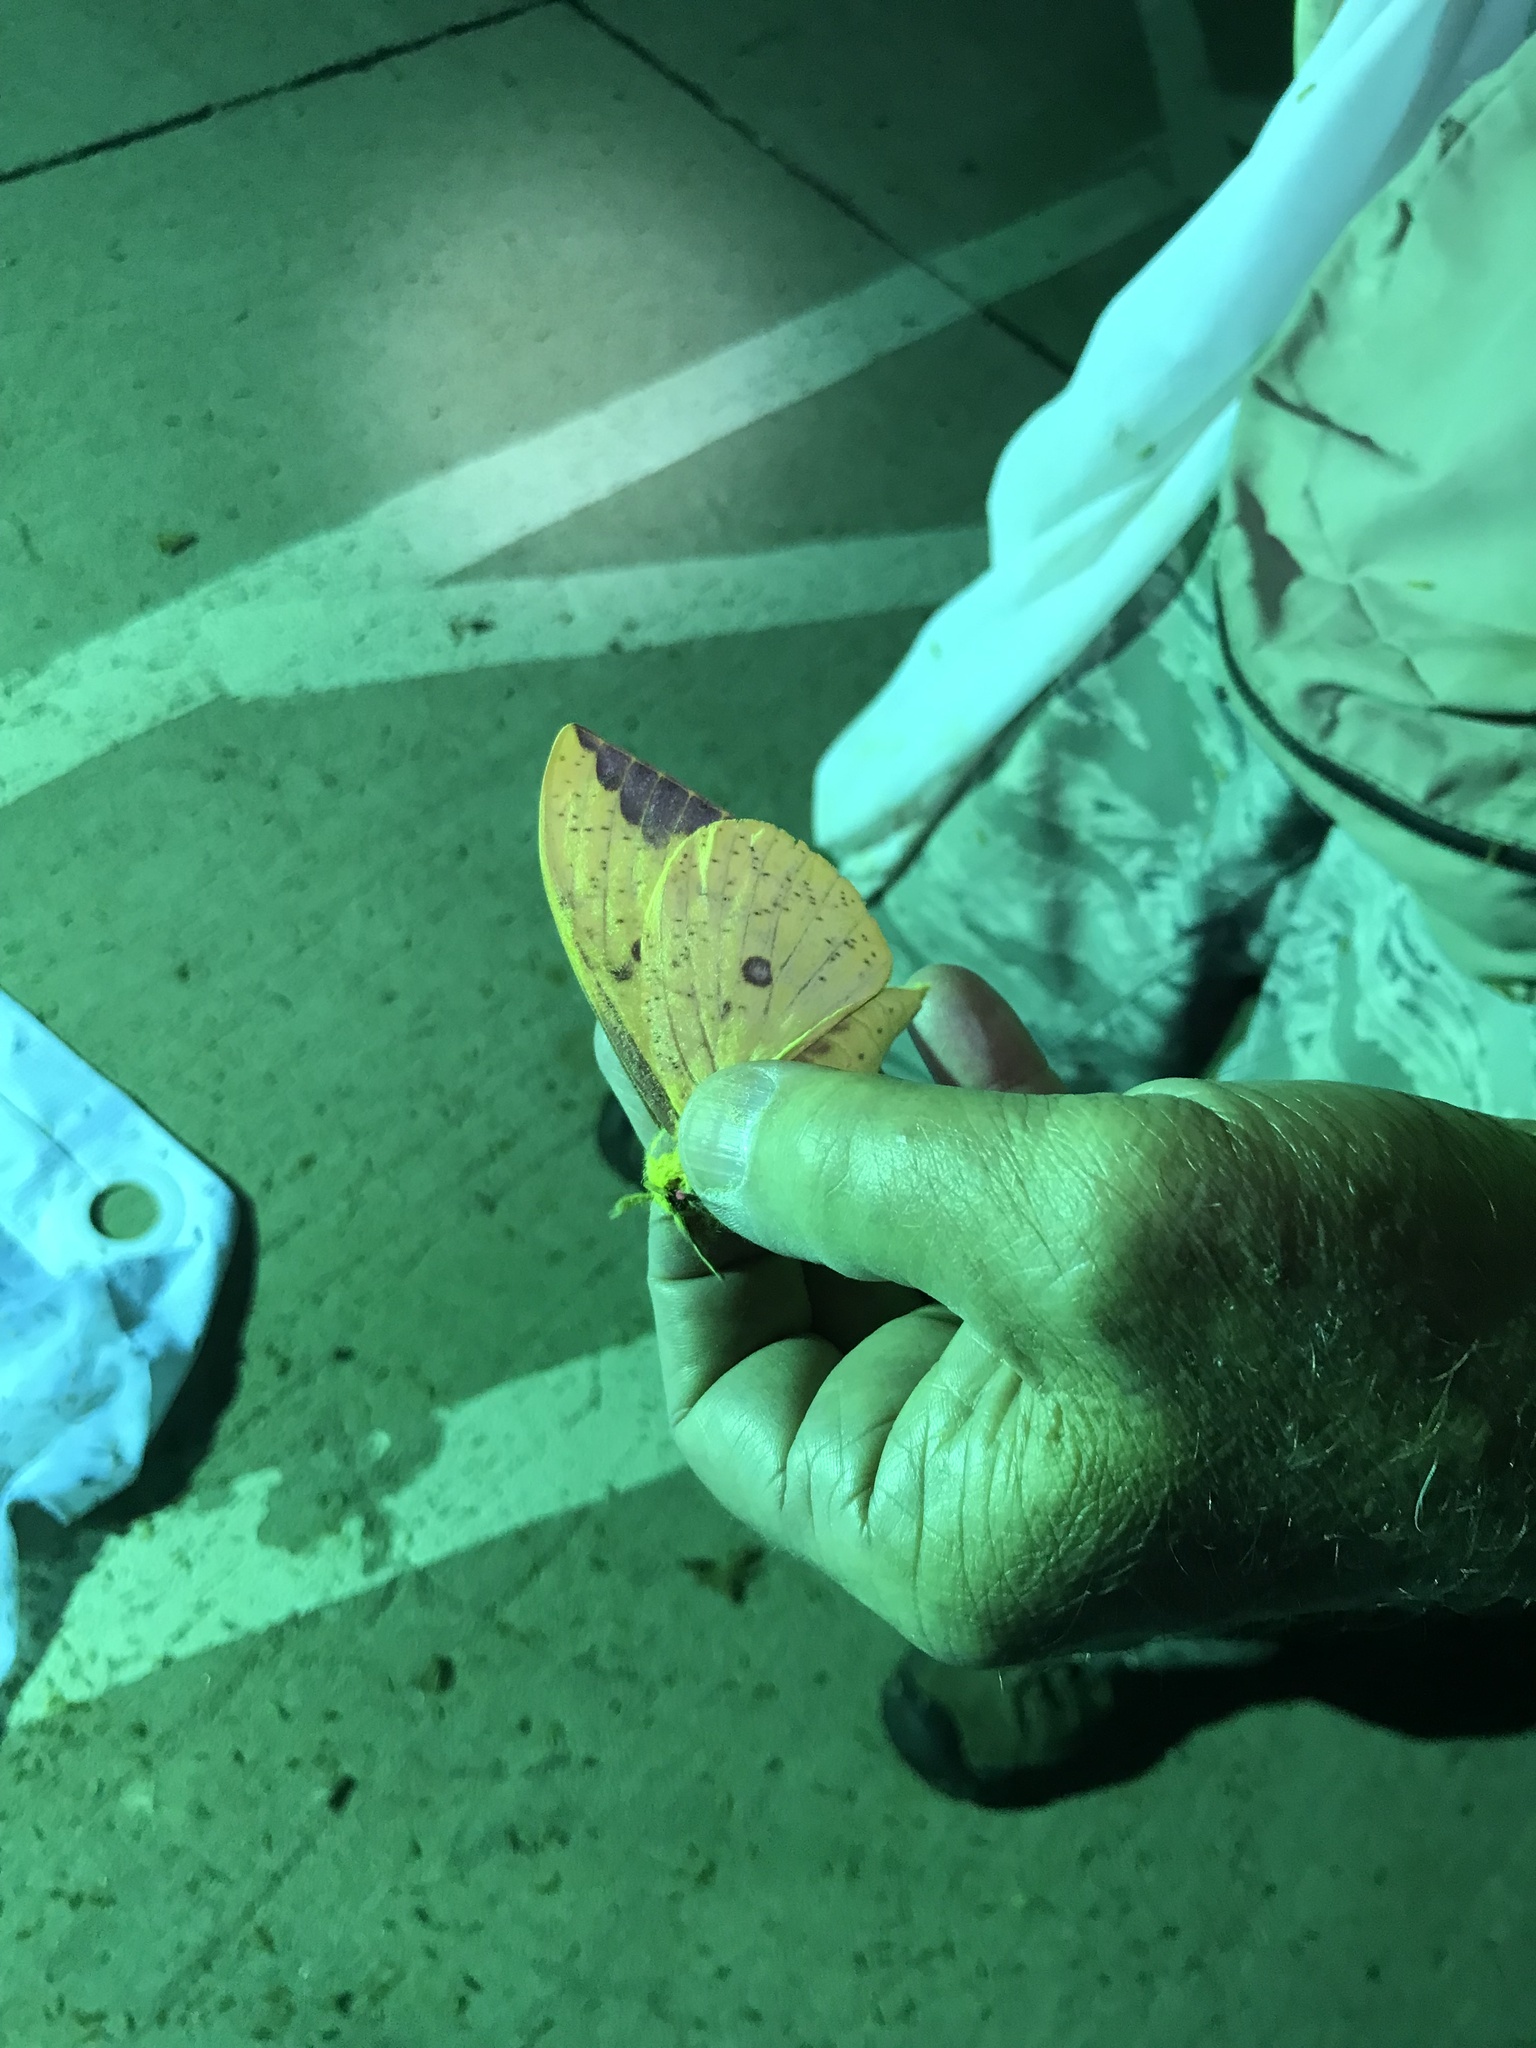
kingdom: Animalia
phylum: Arthropoda
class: Insecta
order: Lepidoptera
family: Saturniidae
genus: Eacles
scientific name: Eacles imperialis
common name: Imperial moth
